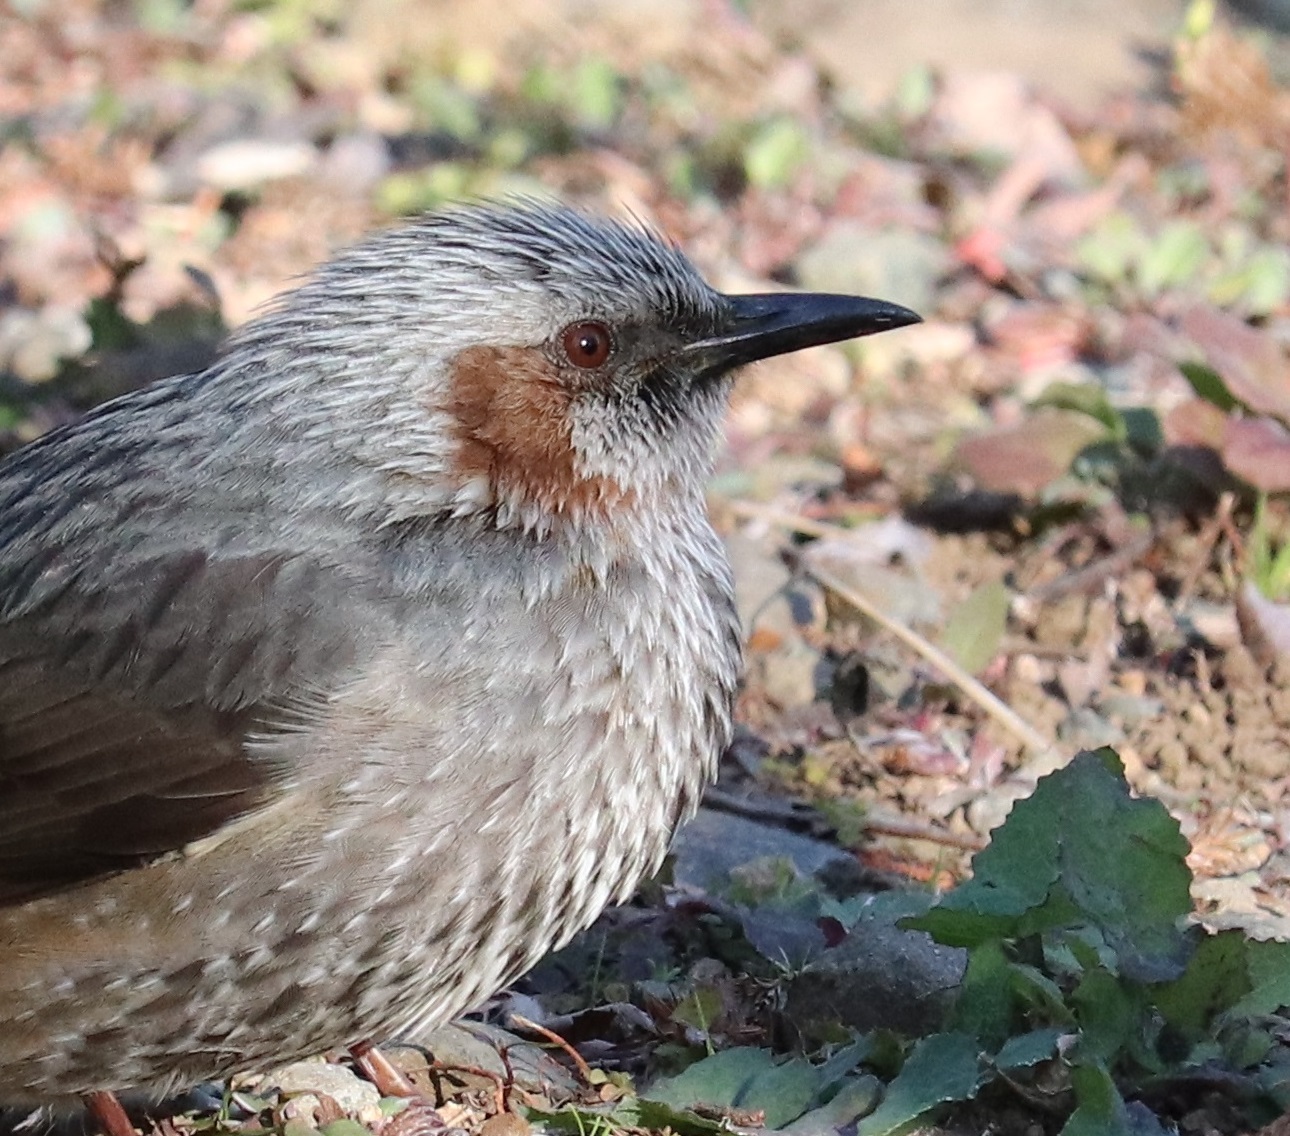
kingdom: Animalia
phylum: Chordata
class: Aves
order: Passeriformes
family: Pycnonotidae
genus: Hypsipetes
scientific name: Hypsipetes amaurotis
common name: Brown-eared bulbul
